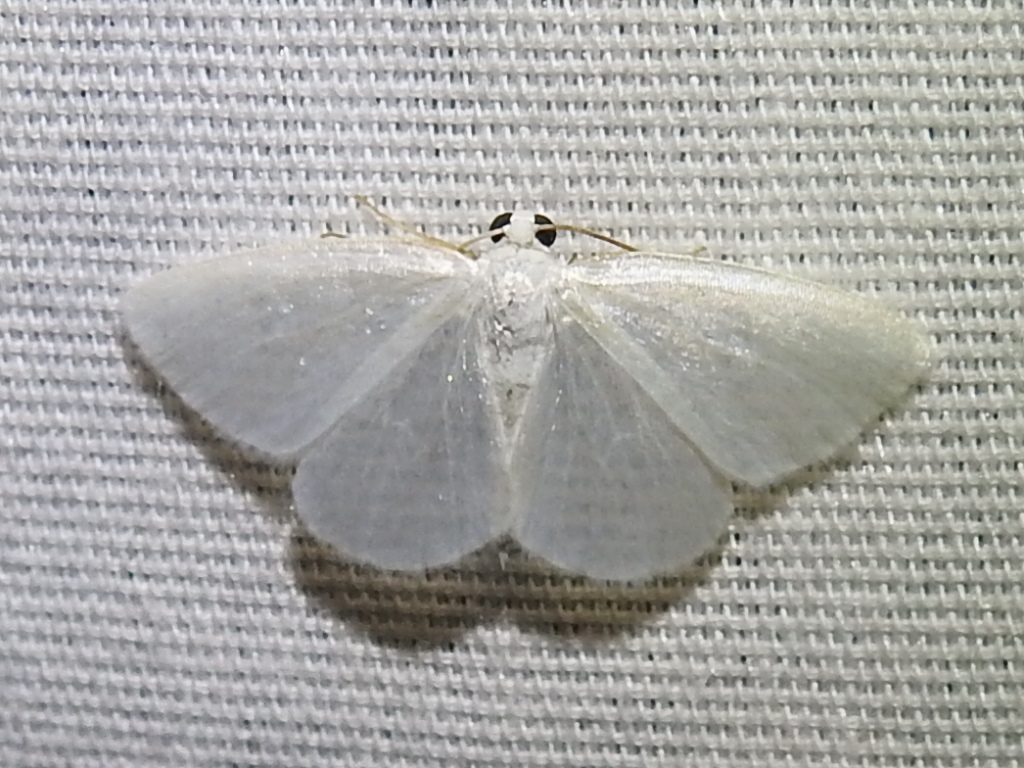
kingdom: Animalia
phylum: Arthropoda
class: Insecta
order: Lepidoptera
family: Geometridae
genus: Lomographa
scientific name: Lomographa vestaliata
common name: White spring moth
